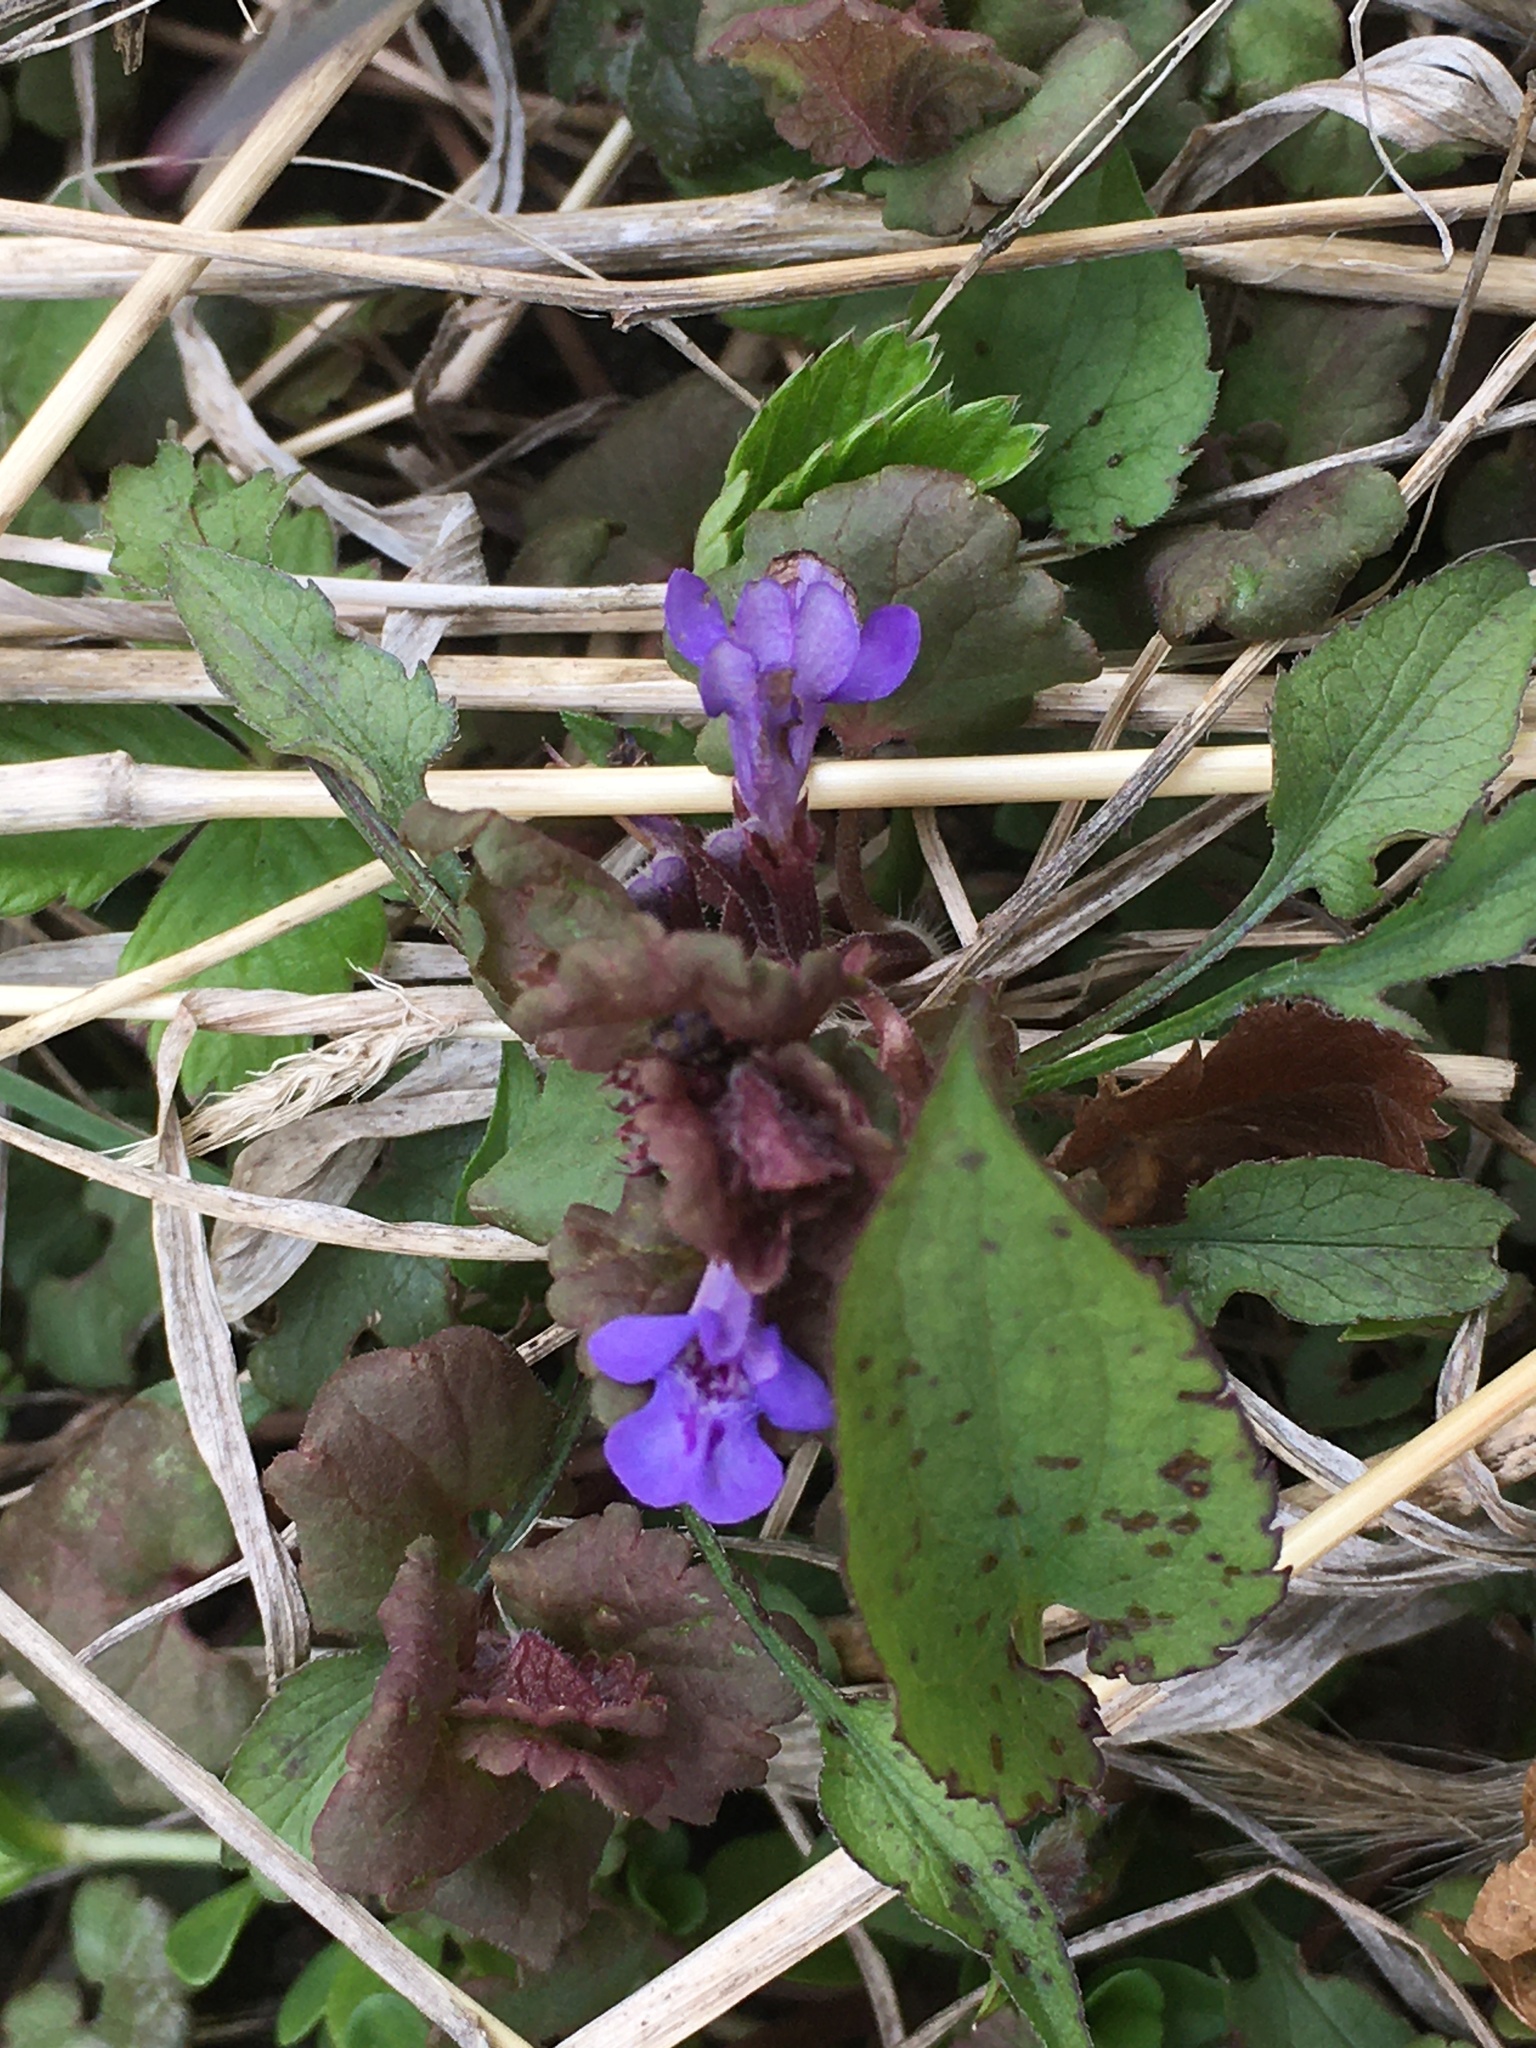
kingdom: Plantae
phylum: Tracheophyta
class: Magnoliopsida
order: Lamiales
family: Lamiaceae
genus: Glechoma
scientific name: Glechoma hederacea
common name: Ground ivy
